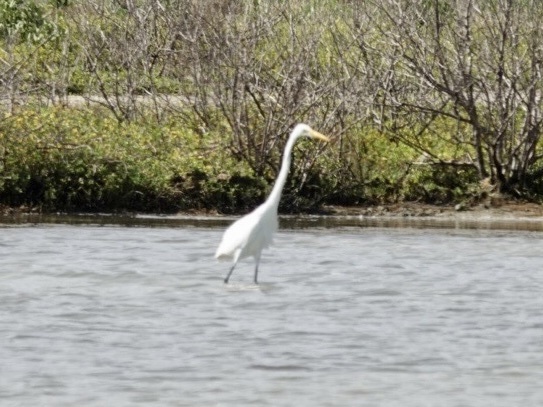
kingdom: Animalia
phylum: Chordata
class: Aves
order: Pelecaniformes
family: Ardeidae
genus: Ardea
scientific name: Ardea alba
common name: Great egret
